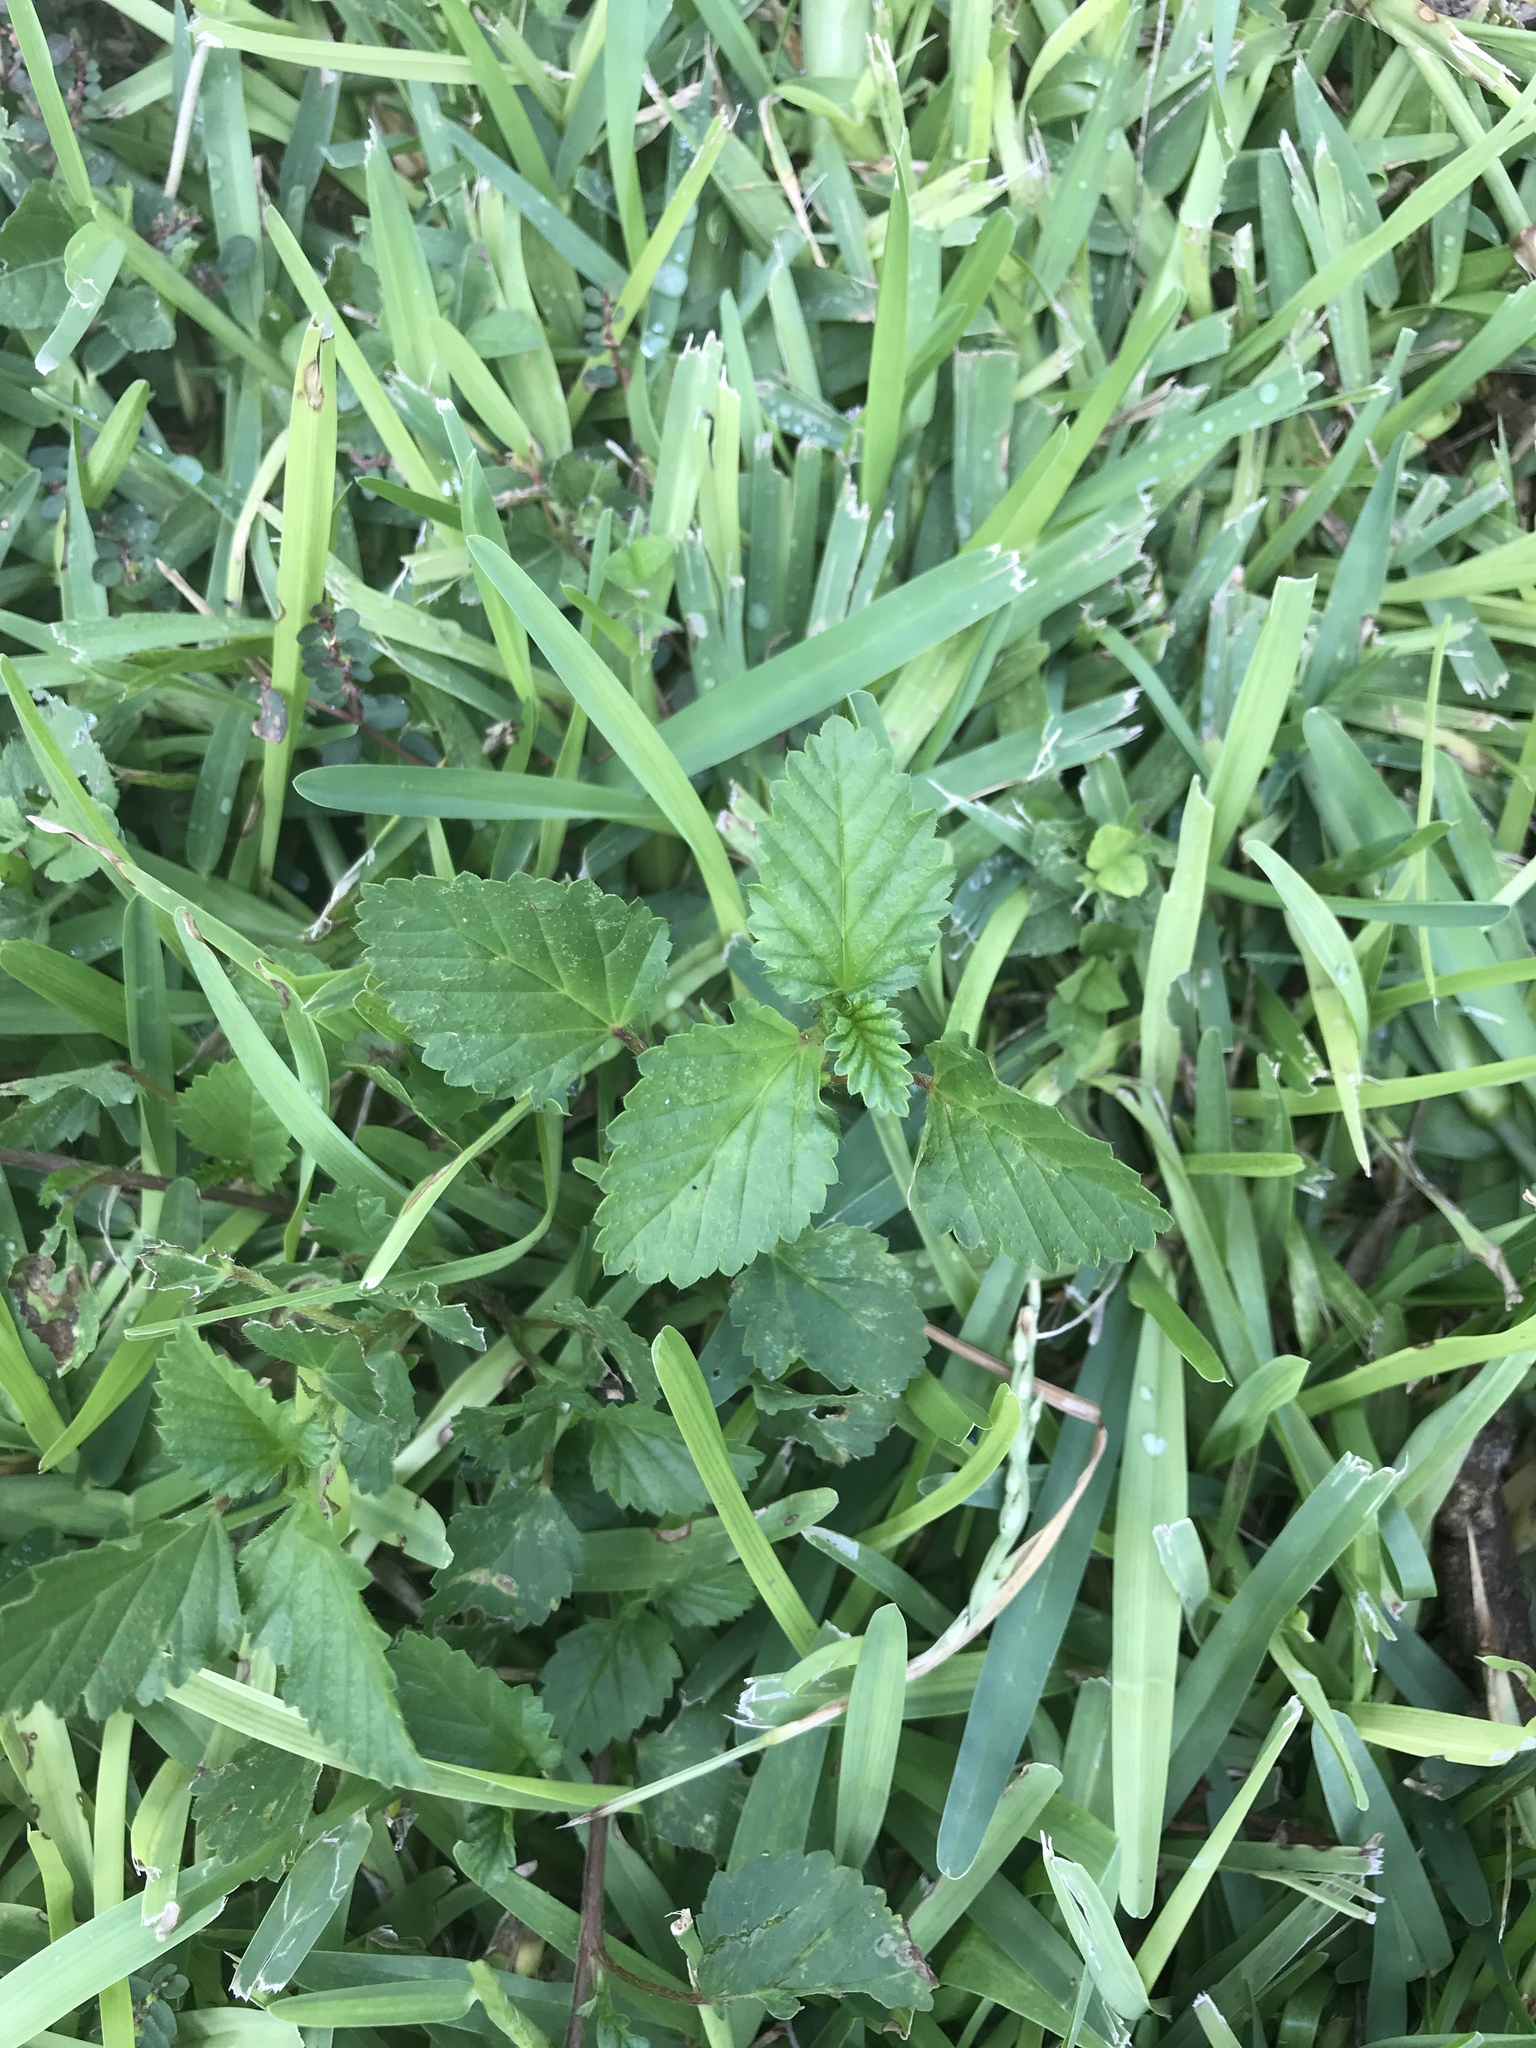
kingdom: Plantae
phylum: Tracheophyta
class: Magnoliopsida
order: Malvales
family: Malvaceae
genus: Malvastrum
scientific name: Malvastrum coromandelianum
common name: Threelobe false mallow
